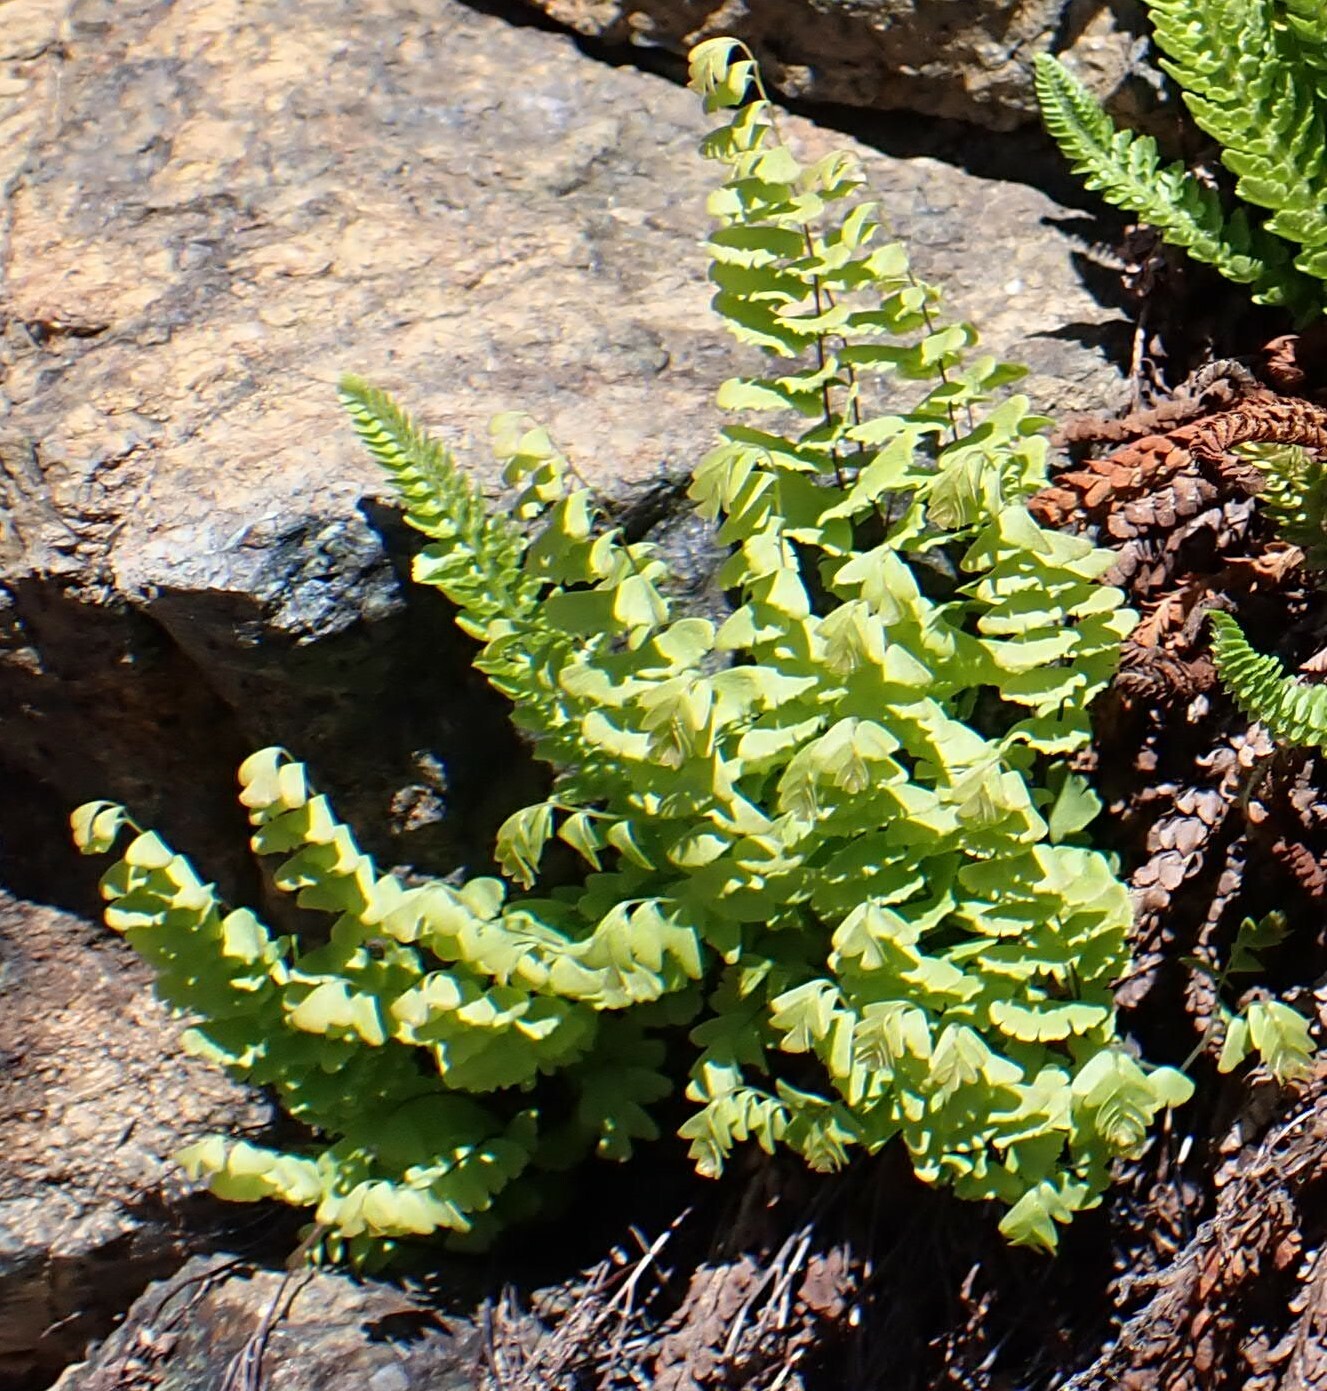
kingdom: Plantae
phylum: Tracheophyta
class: Polypodiopsida
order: Polypodiales
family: Pteridaceae
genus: Adiantum
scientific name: Adiantum aleuticum
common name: Aleutian maidenhair fern
